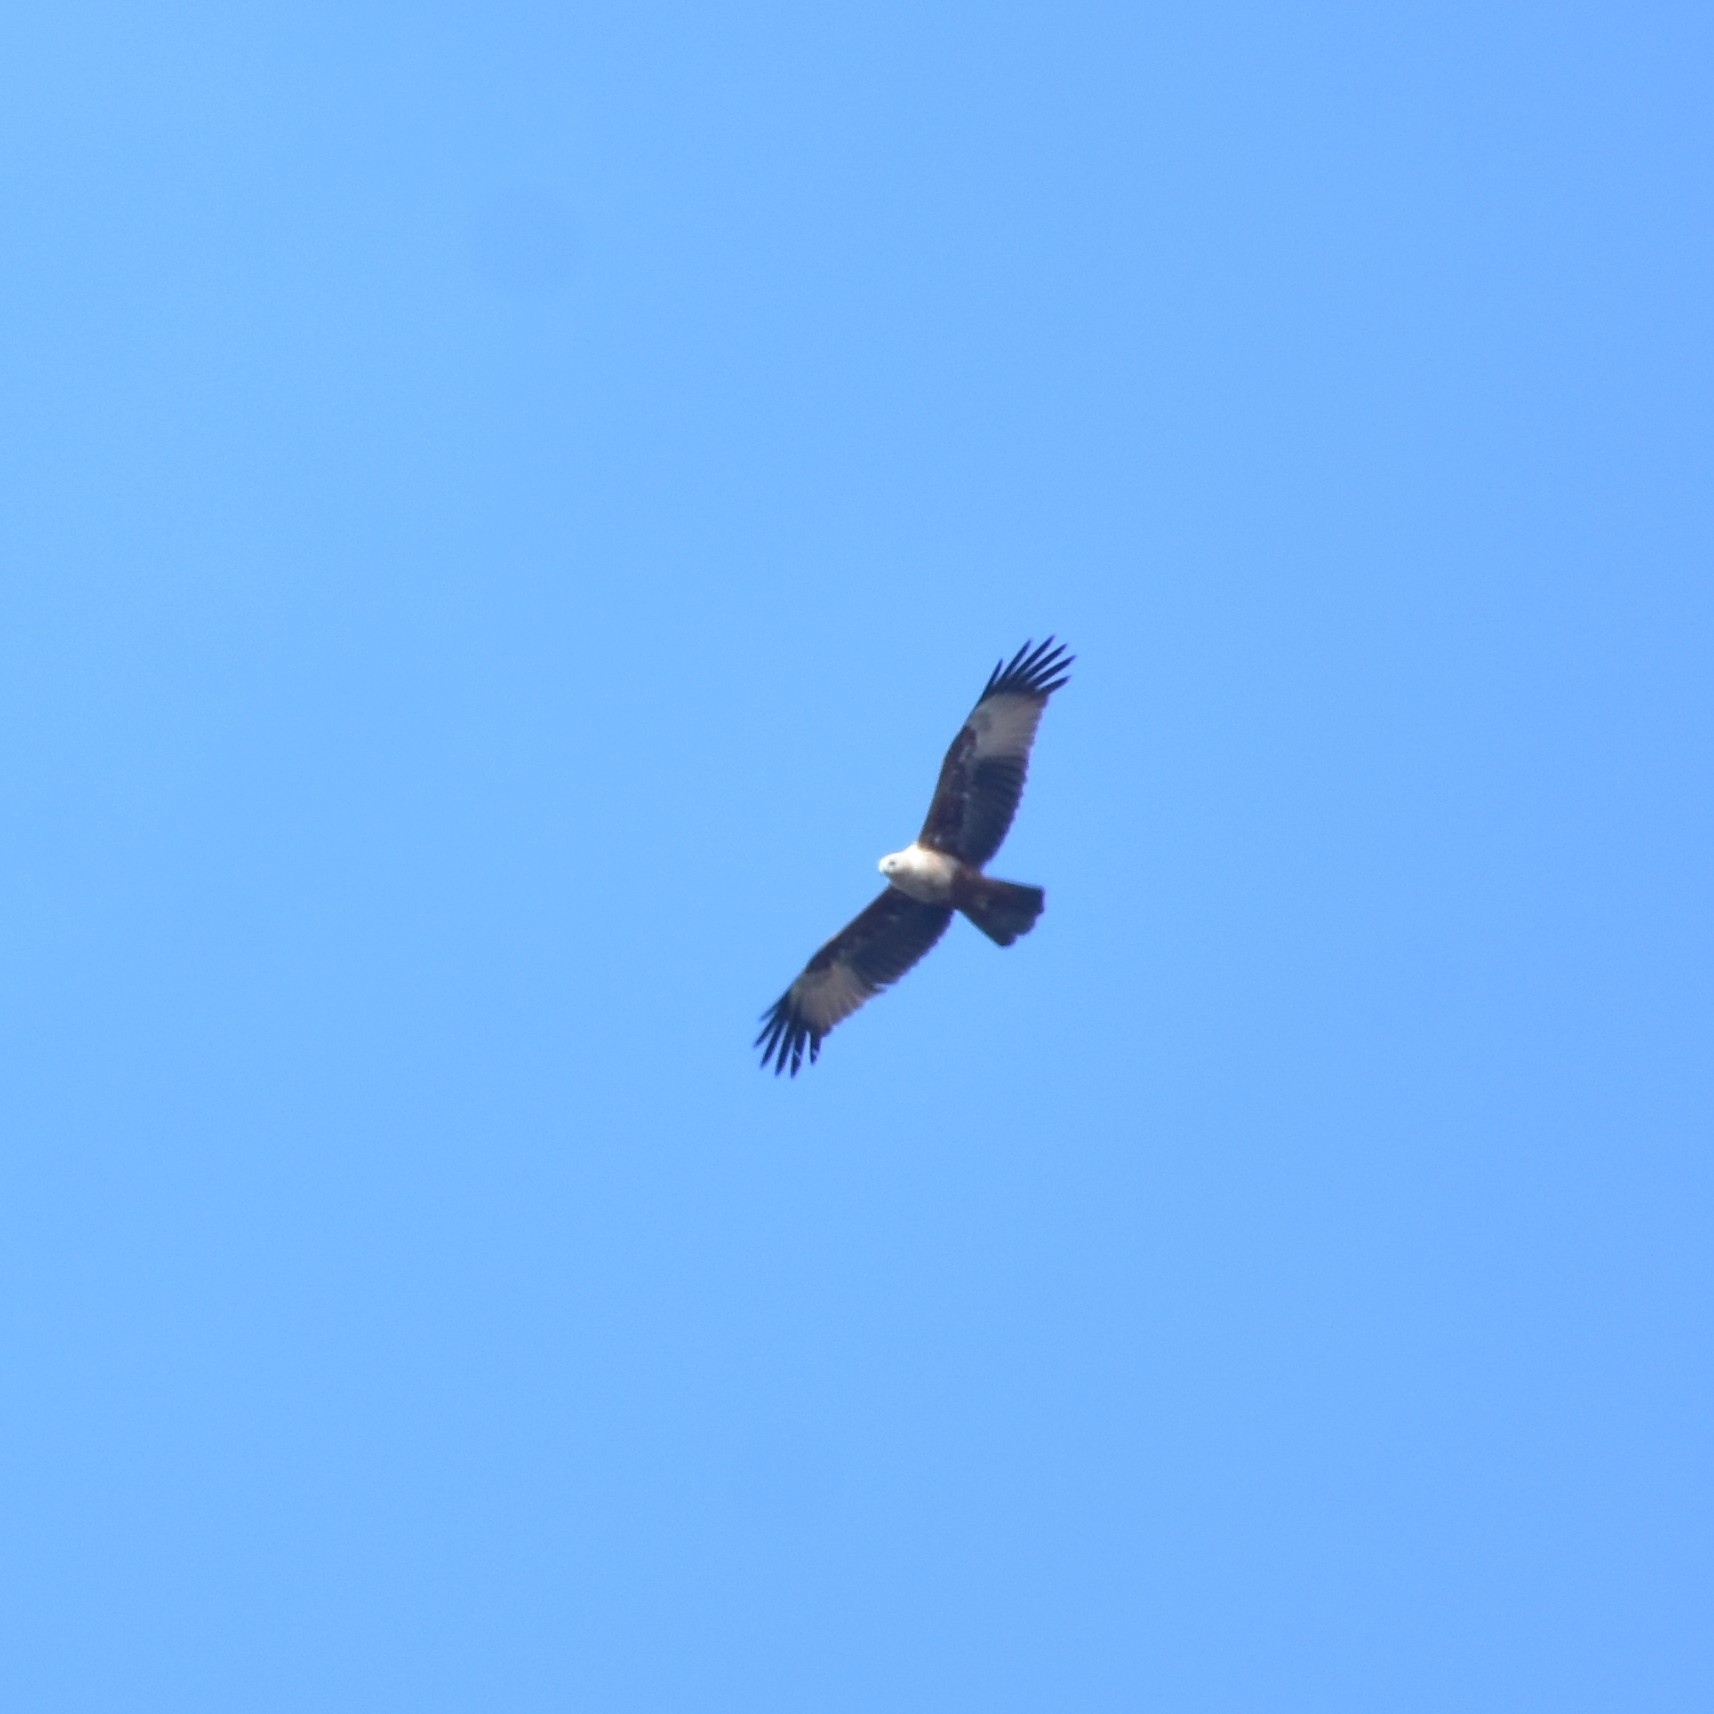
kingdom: Animalia
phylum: Chordata
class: Aves
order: Accipitriformes
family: Accipitridae
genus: Haliastur
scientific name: Haliastur indus
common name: Brahminy kite
